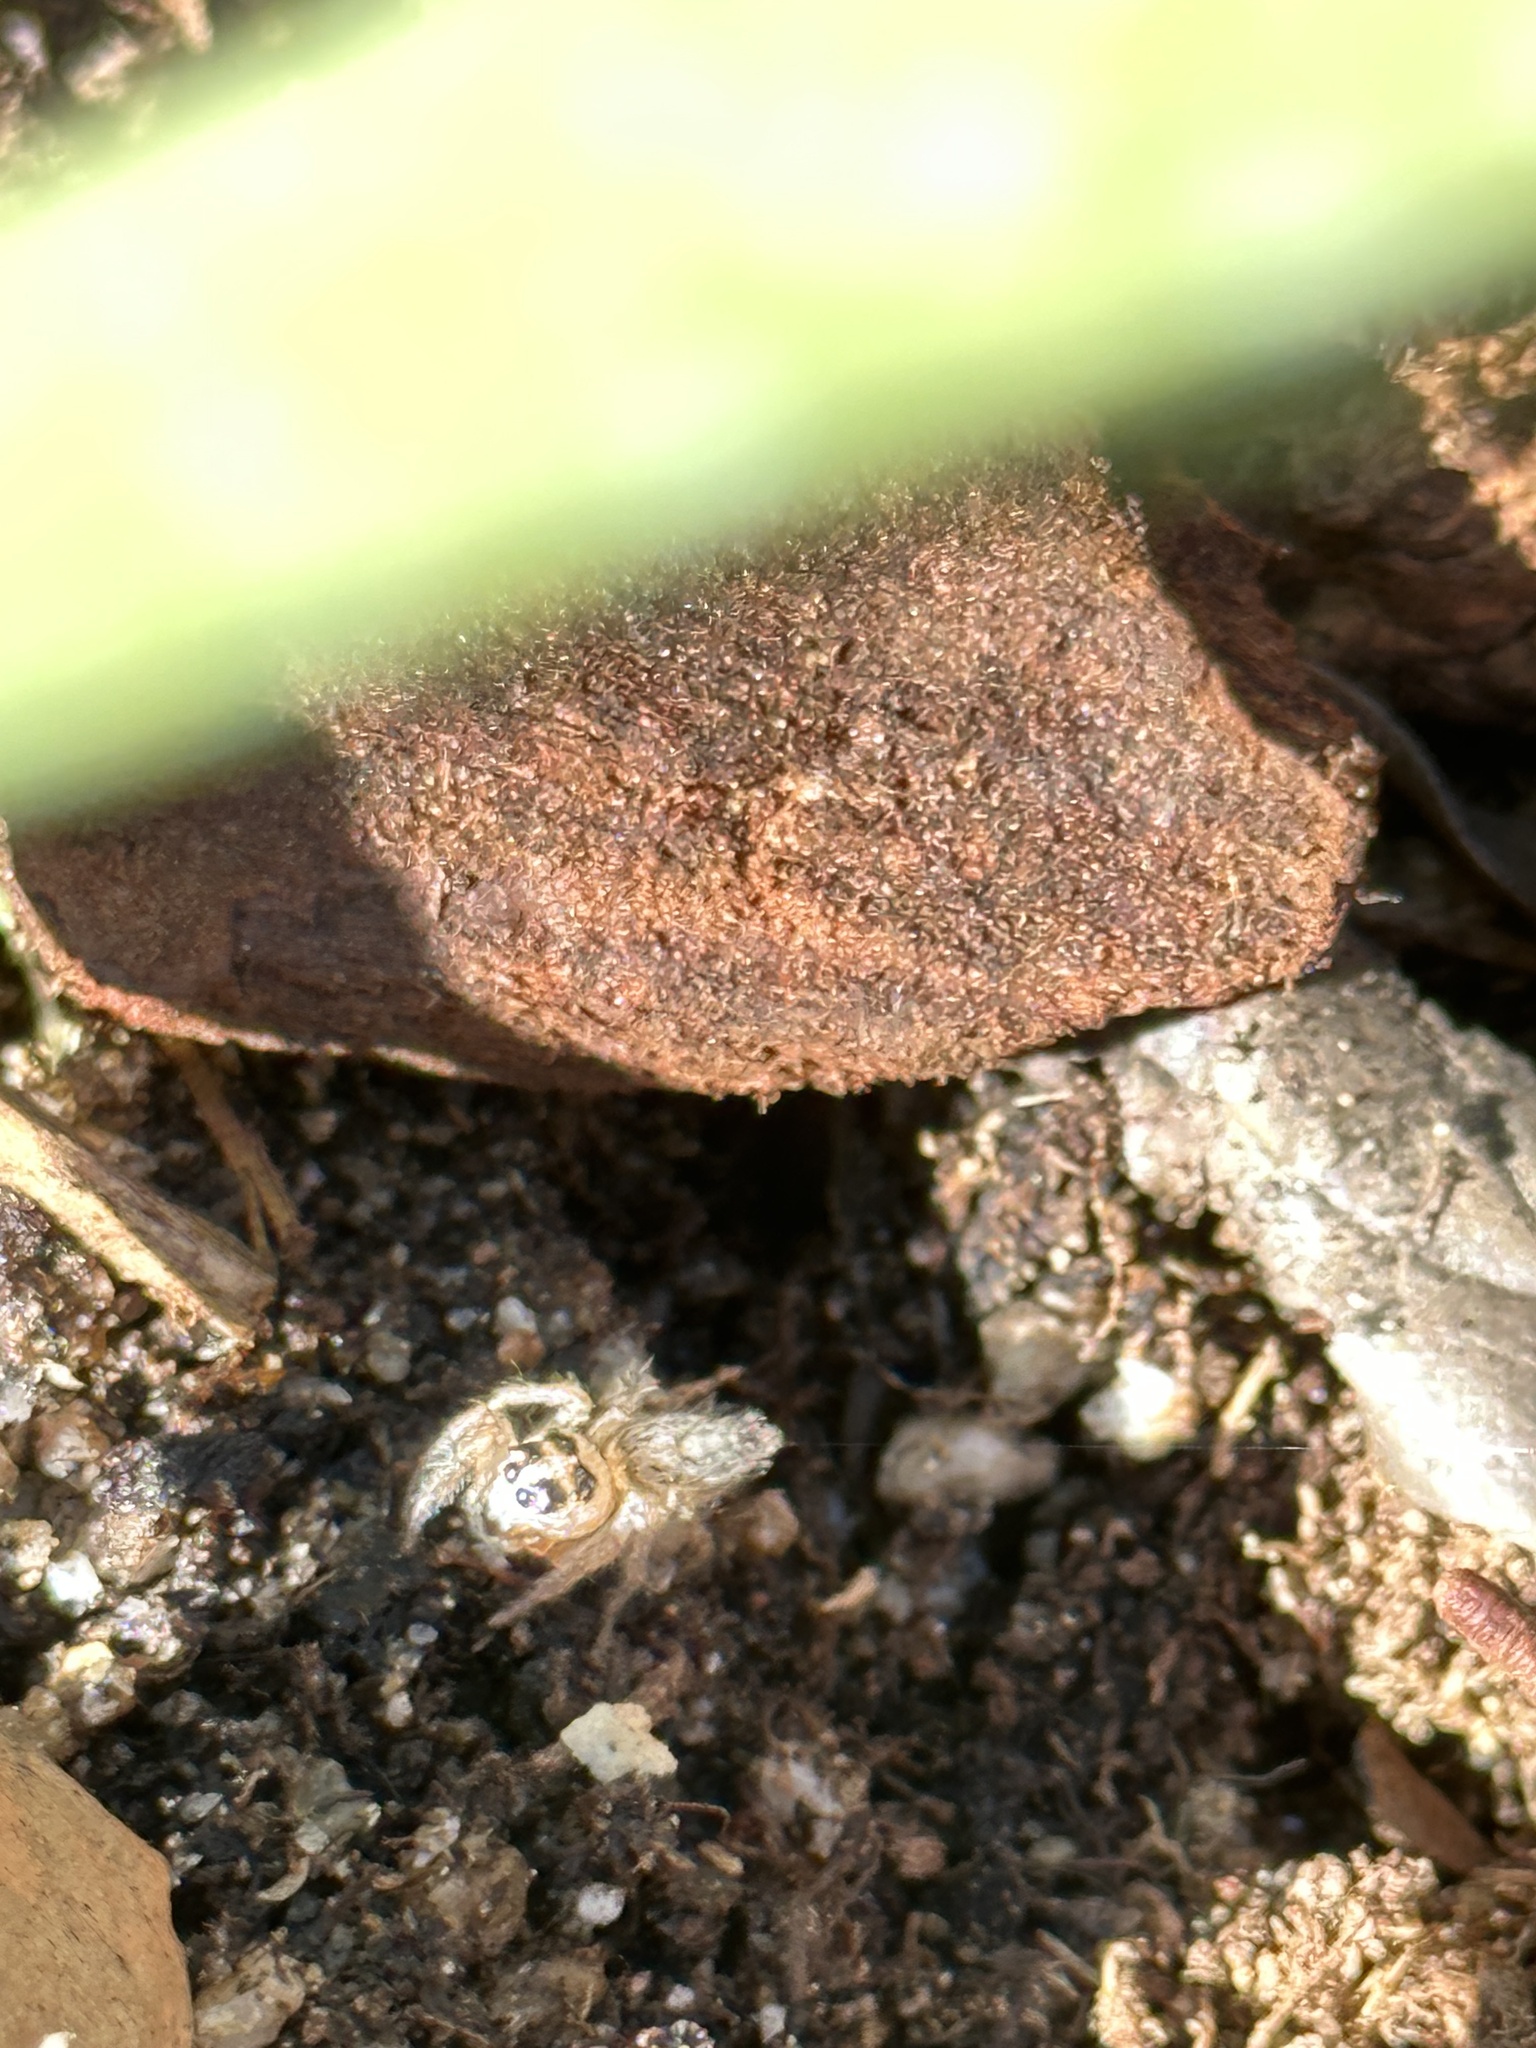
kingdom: Animalia
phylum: Arthropoda
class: Arachnida
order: Araneae
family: Salticidae
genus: Colonus
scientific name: Colonus hesperus
